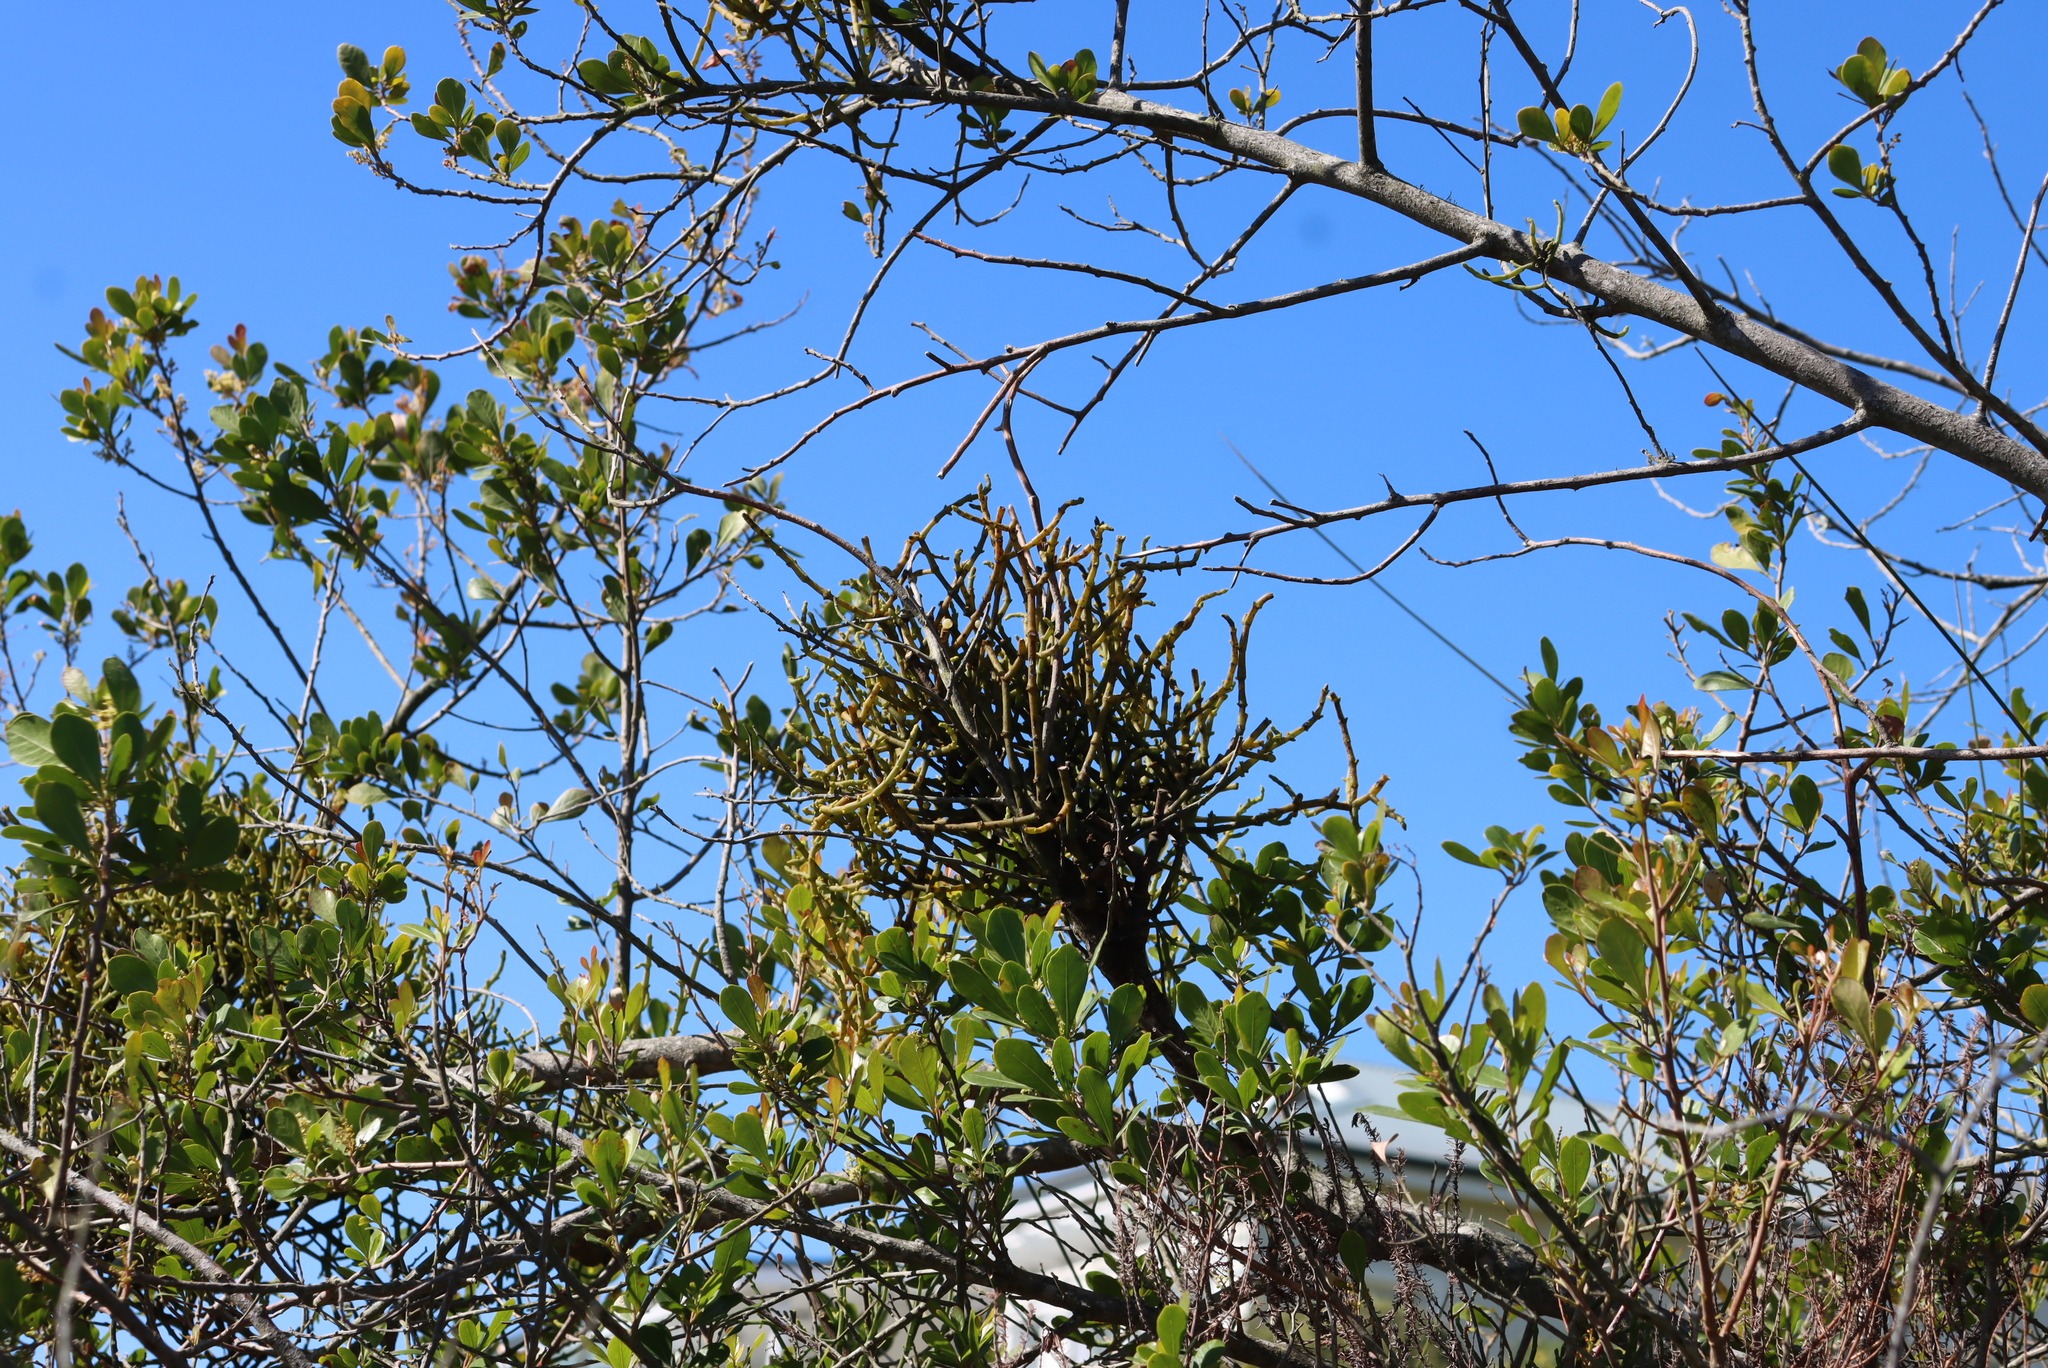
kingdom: Plantae
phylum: Tracheophyta
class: Magnoliopsida
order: Santalales
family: Viscaceae
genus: Viscum
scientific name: Viscum capense
